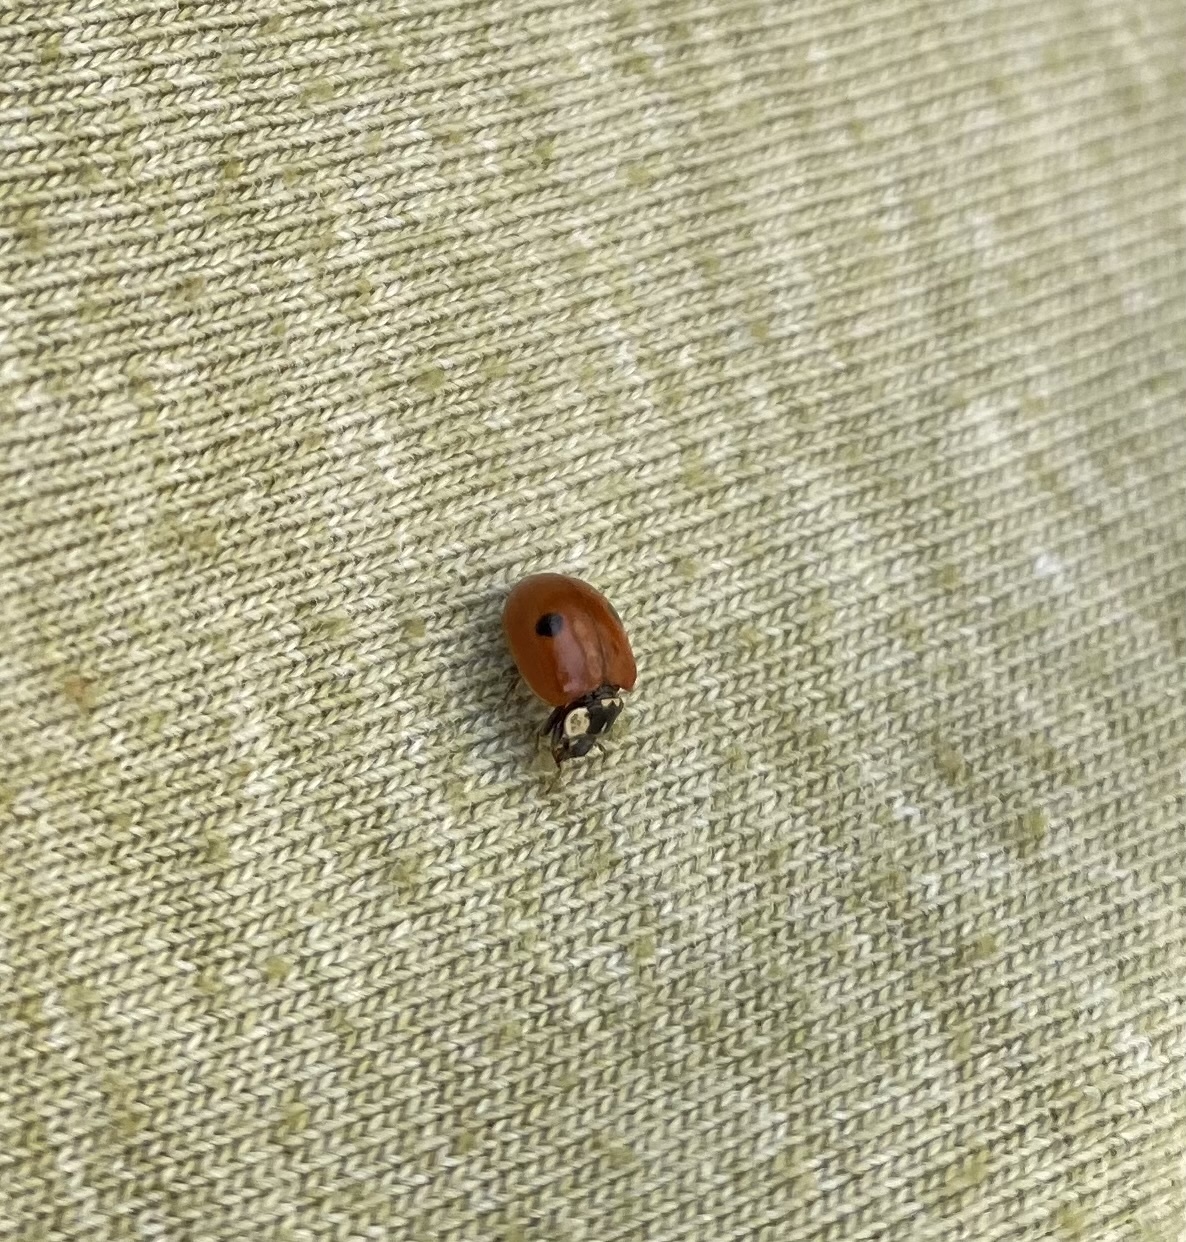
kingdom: Animalia
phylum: Arthropoda
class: Insecta
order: Coleoptera
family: Coccinellidae
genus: Adalia
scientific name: Adalia bipunctata
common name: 2-spot ladybird
